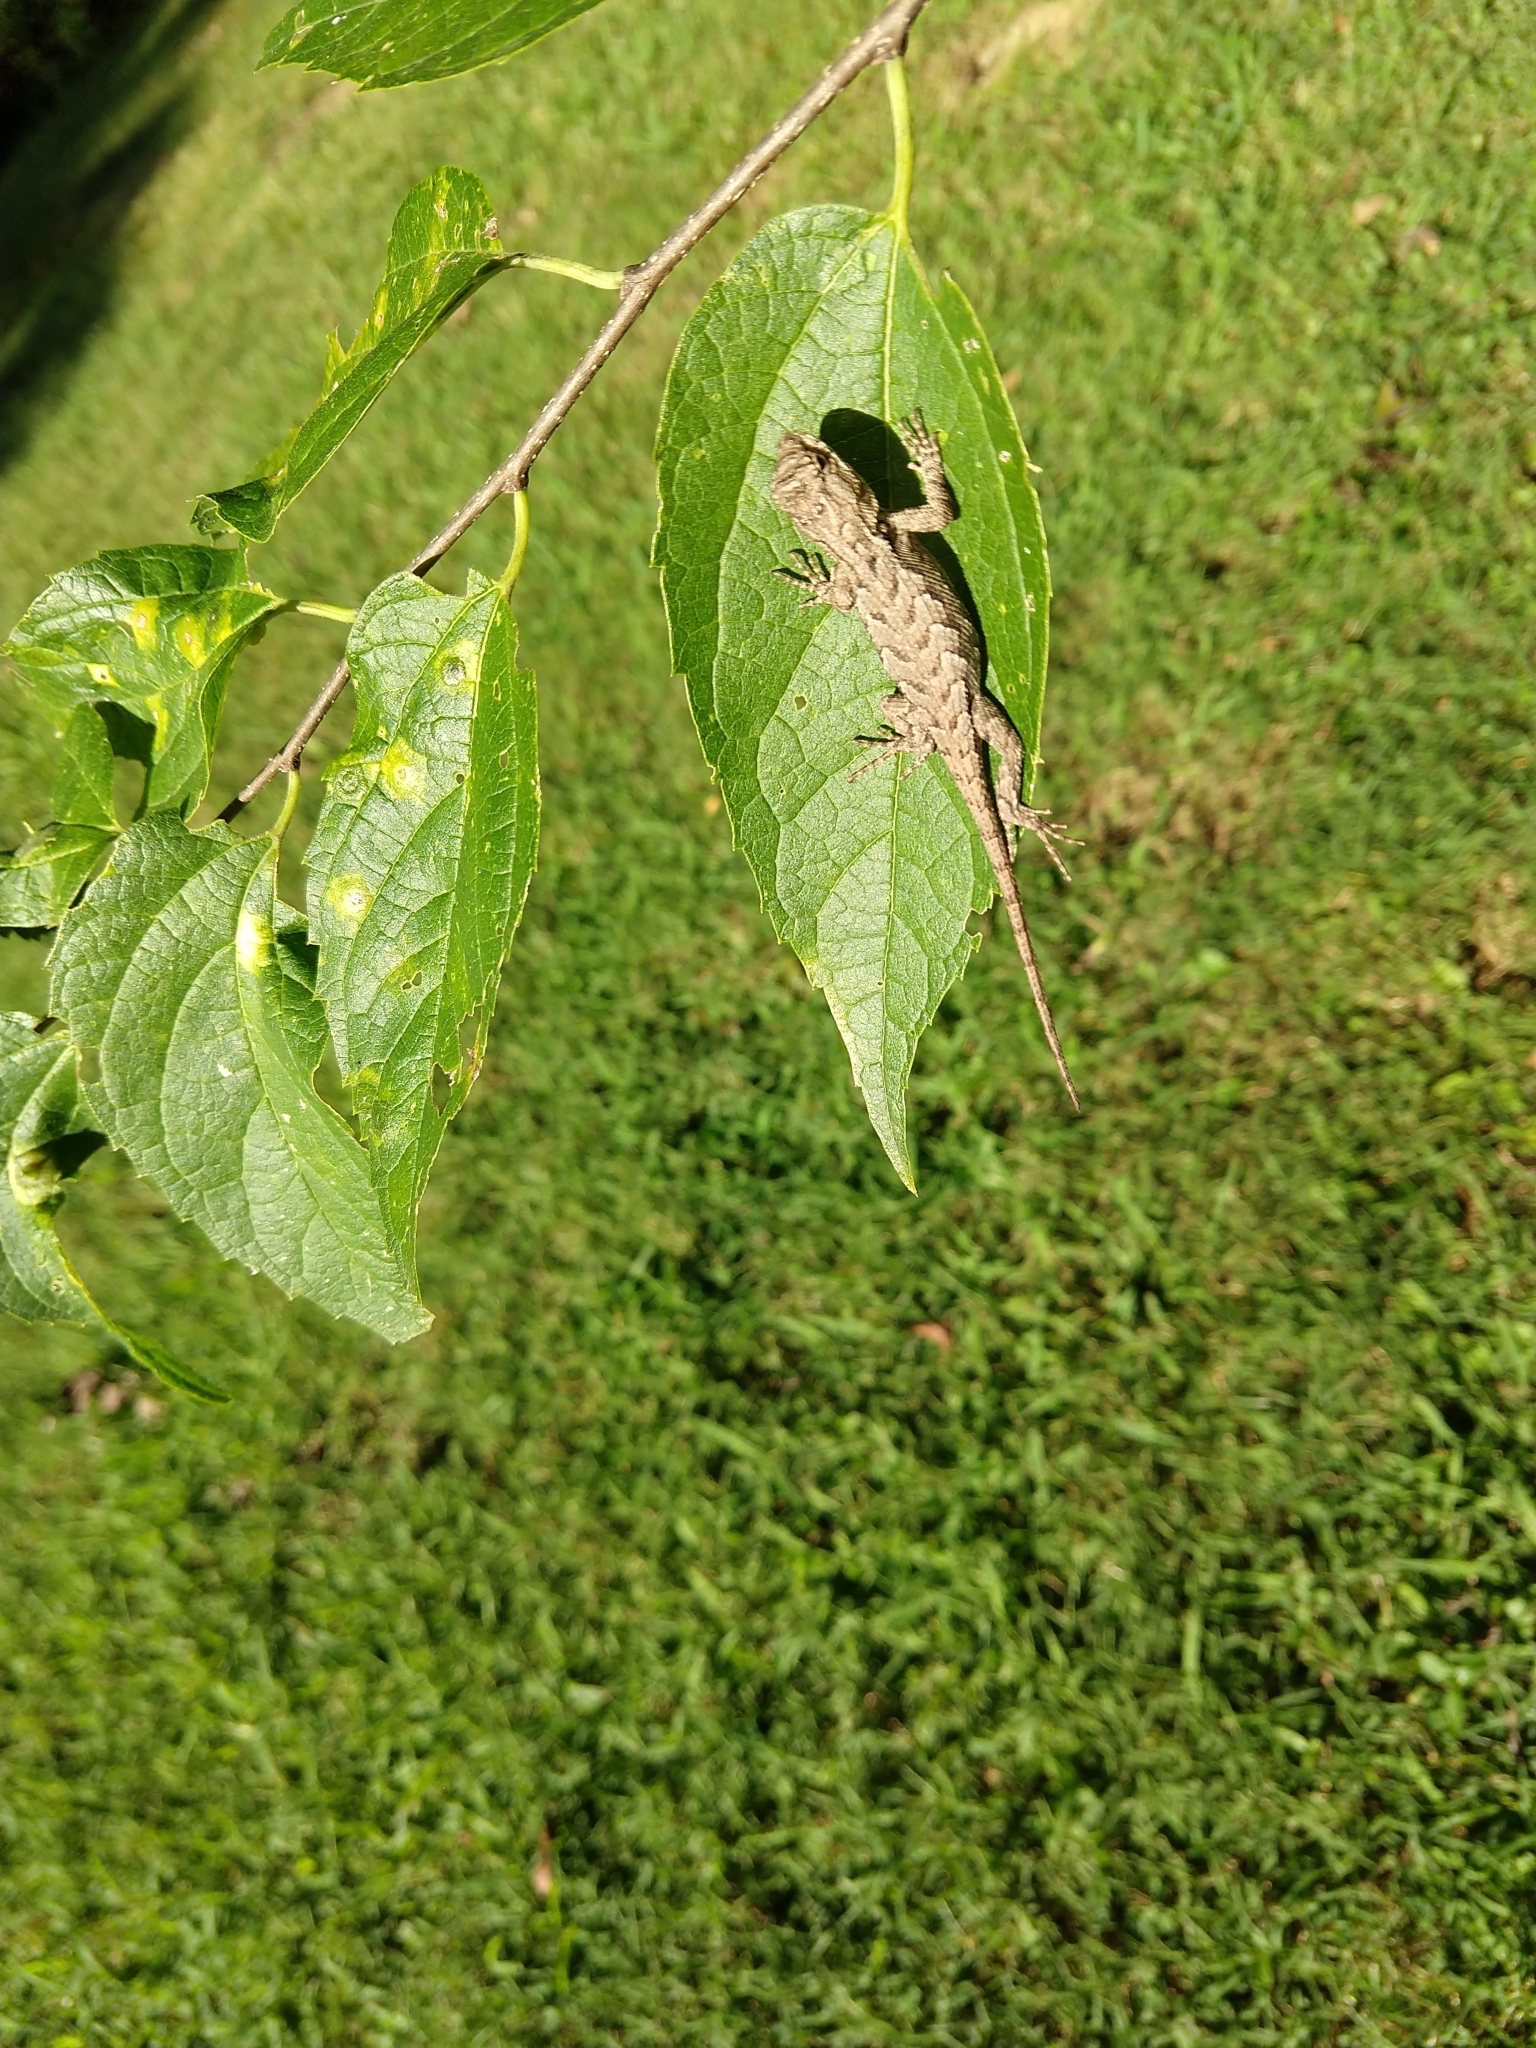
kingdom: Animalia
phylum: Chordata
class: Squamata
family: Phrynosomatidae
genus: Sceloporus
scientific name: Sceloporus undulatus
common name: Eastern fence lizard
